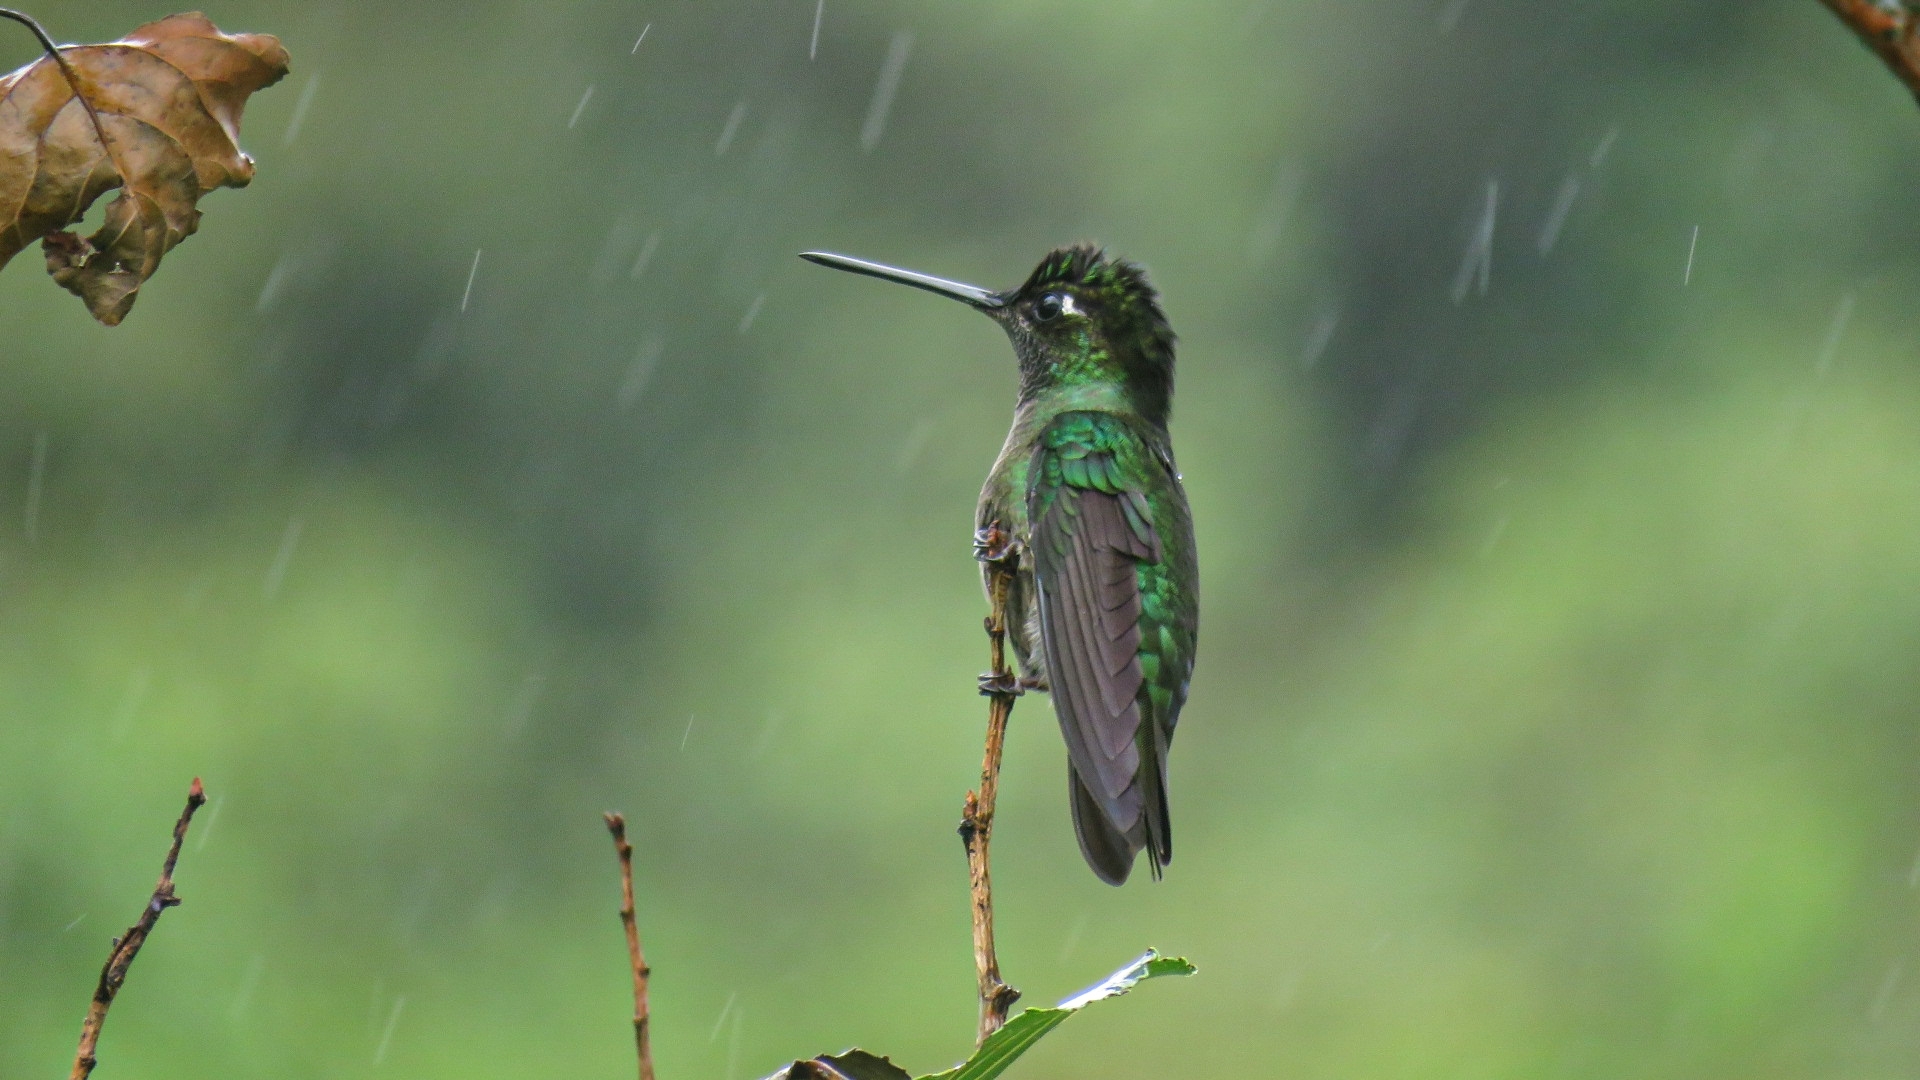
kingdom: Animalia
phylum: Chordata
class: Aves
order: Apodiformes
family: Trochilidae
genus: Eugenes
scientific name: Eugenes spectabilis
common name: Talamanca hummingbird
